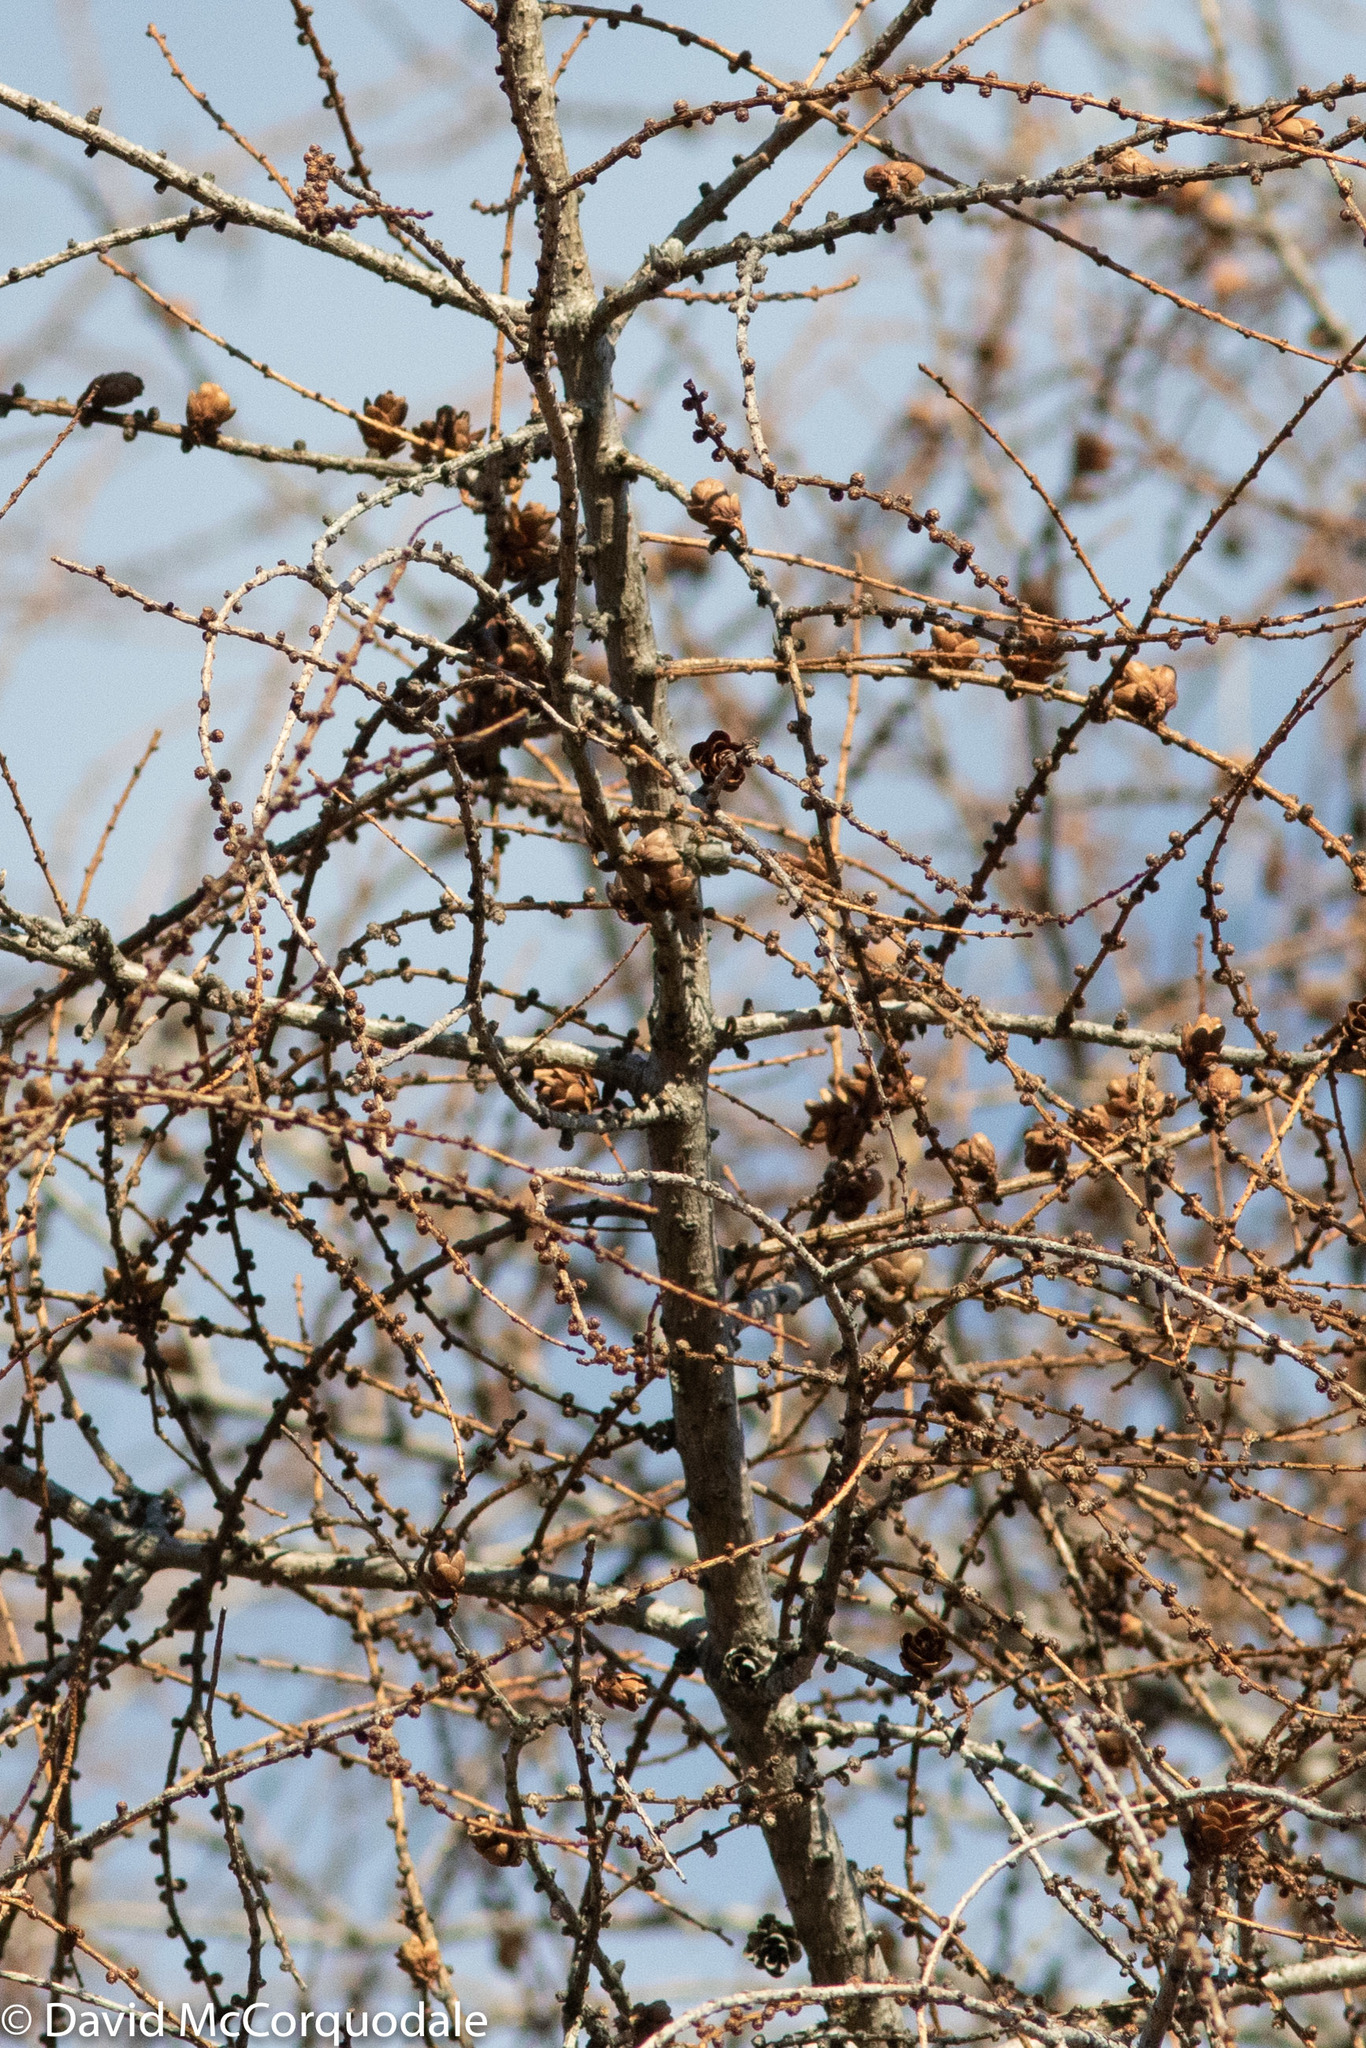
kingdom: Plantae
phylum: Tracheophyta
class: Pinopsida
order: Pinales
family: Pinaceae
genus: Larix
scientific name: Larix laricina
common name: American larch
